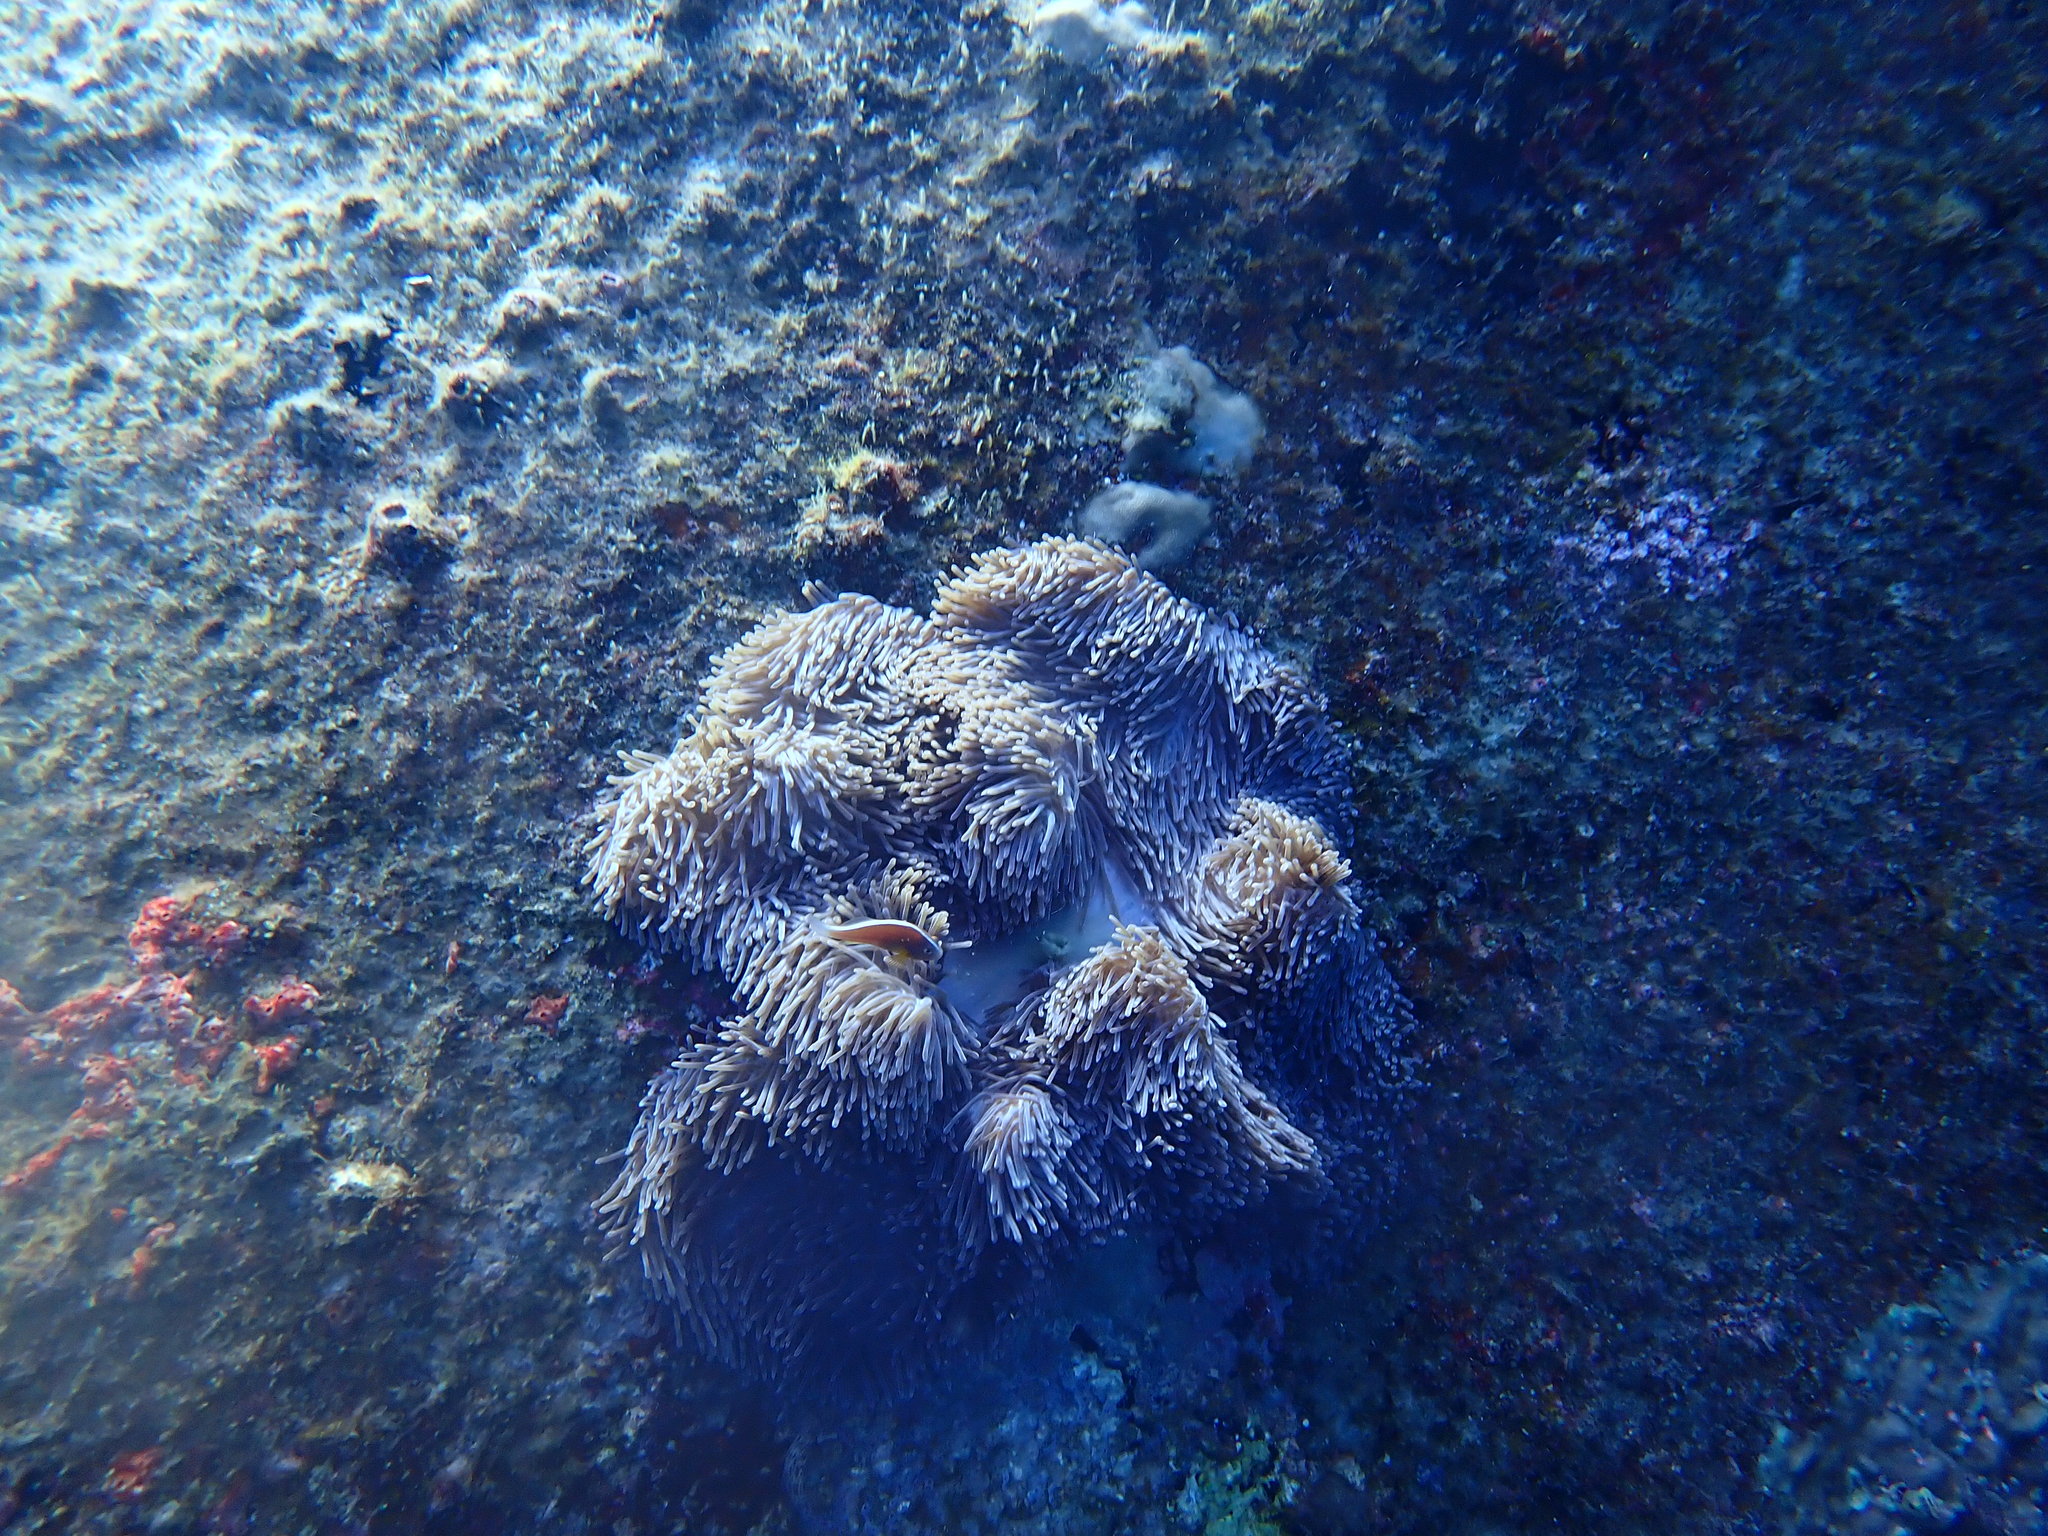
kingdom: Animalia
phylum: Cnidaria
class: Anthozoa
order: Actiniaria
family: Stichodactylidae
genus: Radianthus
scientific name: Radianthus magnifica
